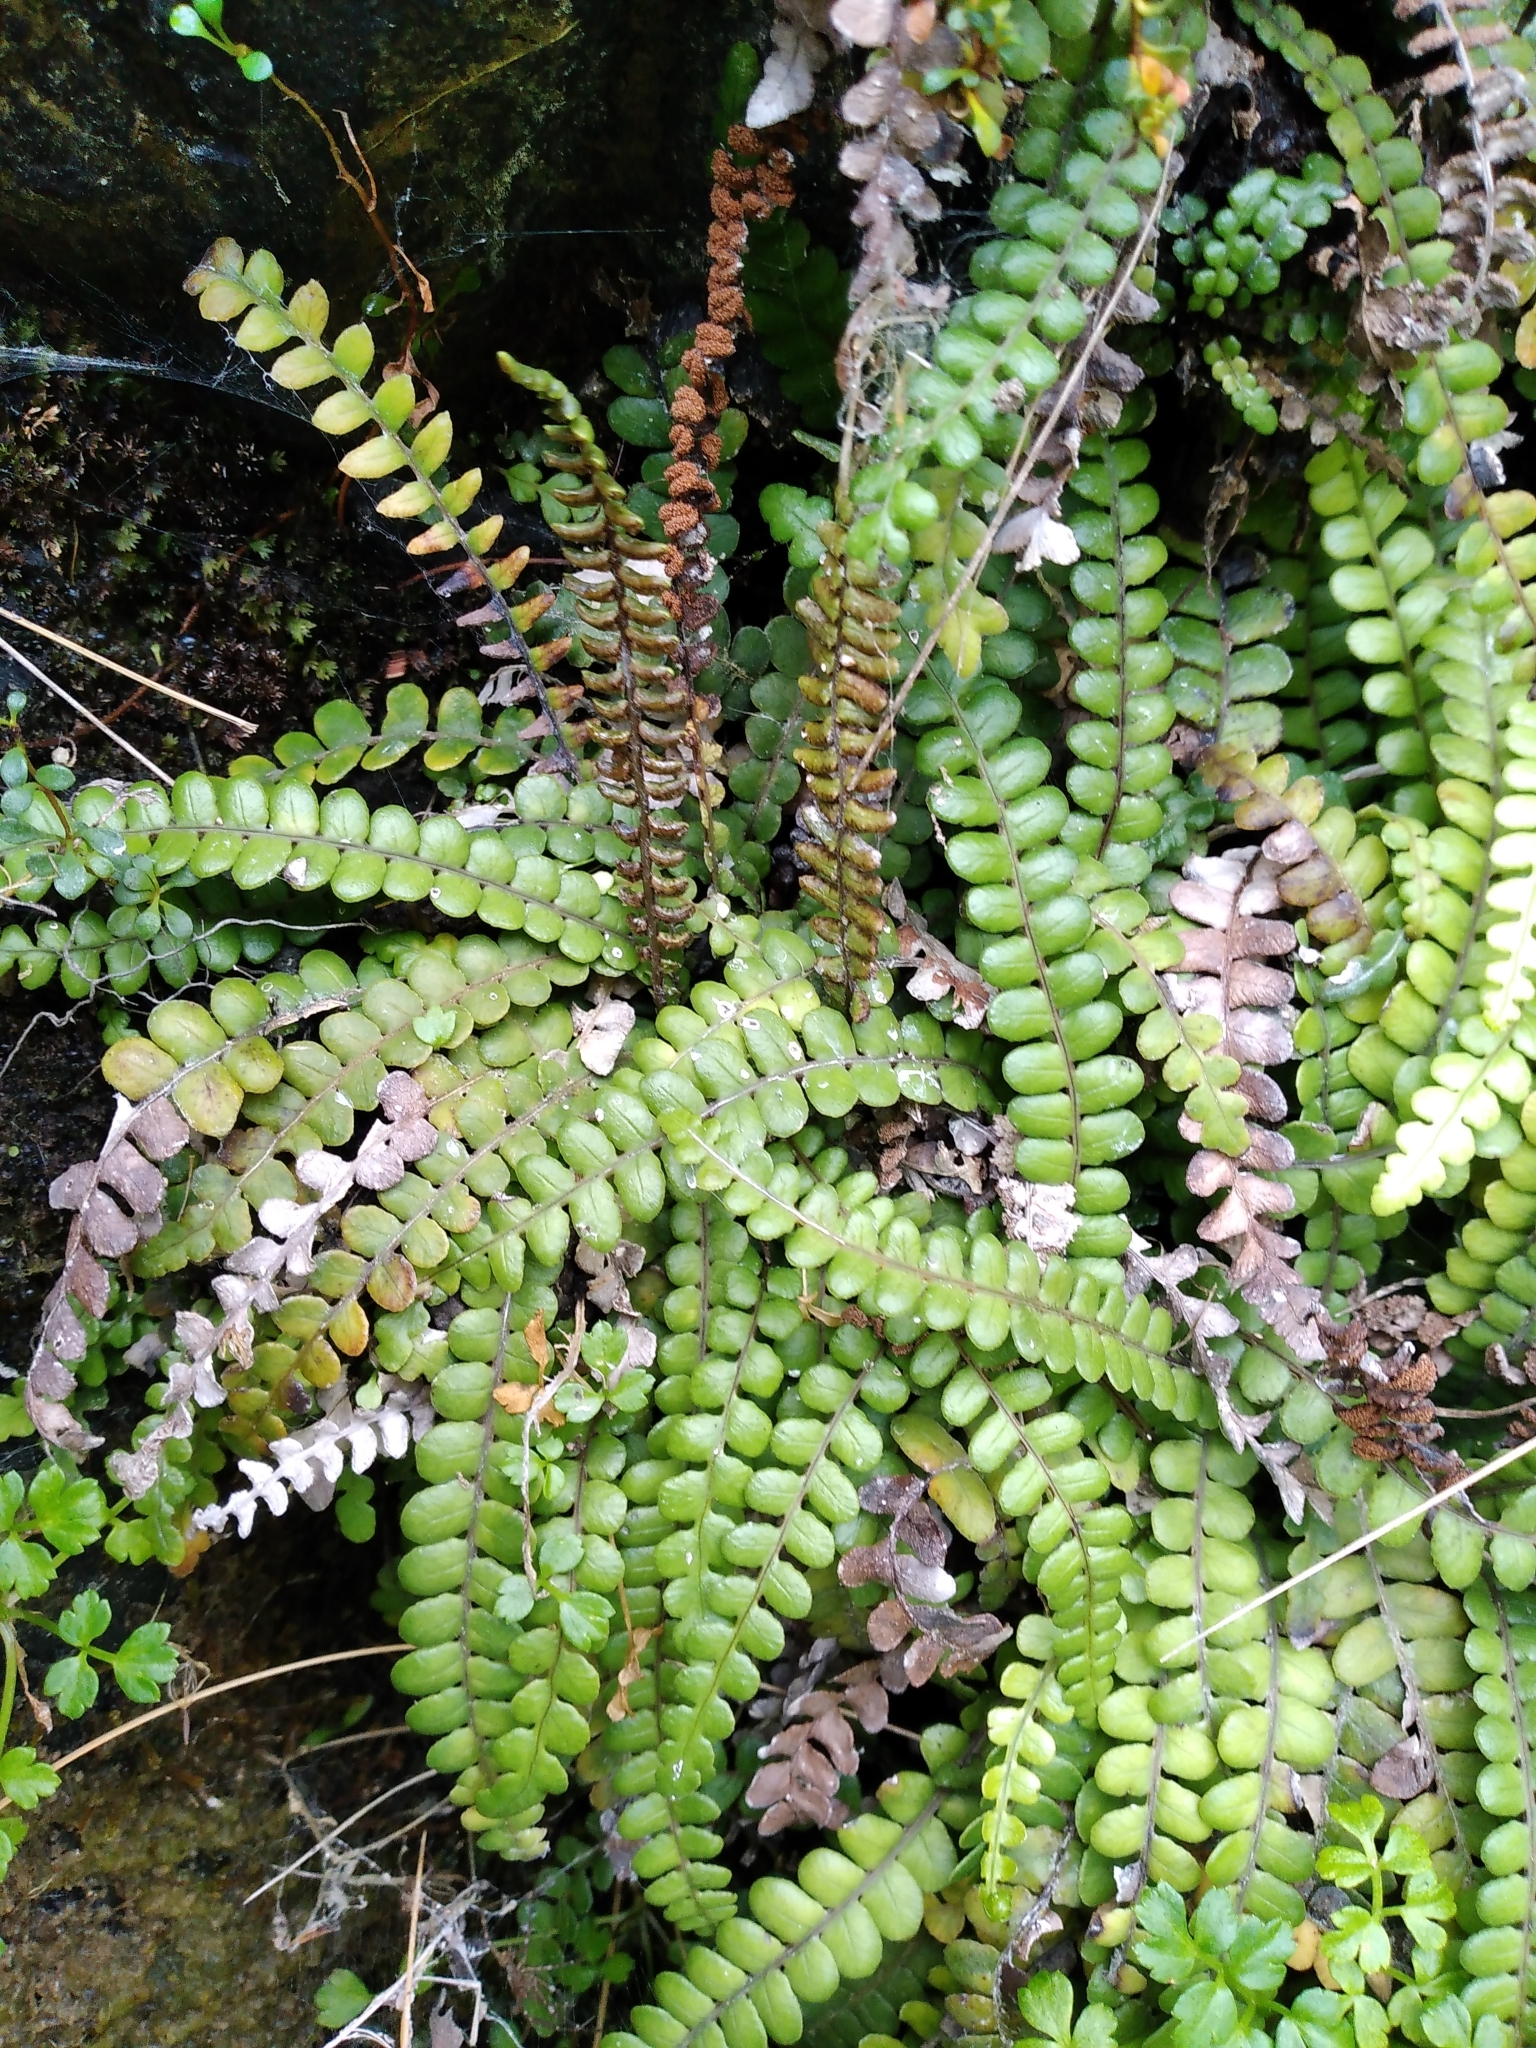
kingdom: Plantae
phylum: Tracheophyta
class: Polypodiopsida
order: Polypodiales
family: Blechnaceae
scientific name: Blechnaceae
